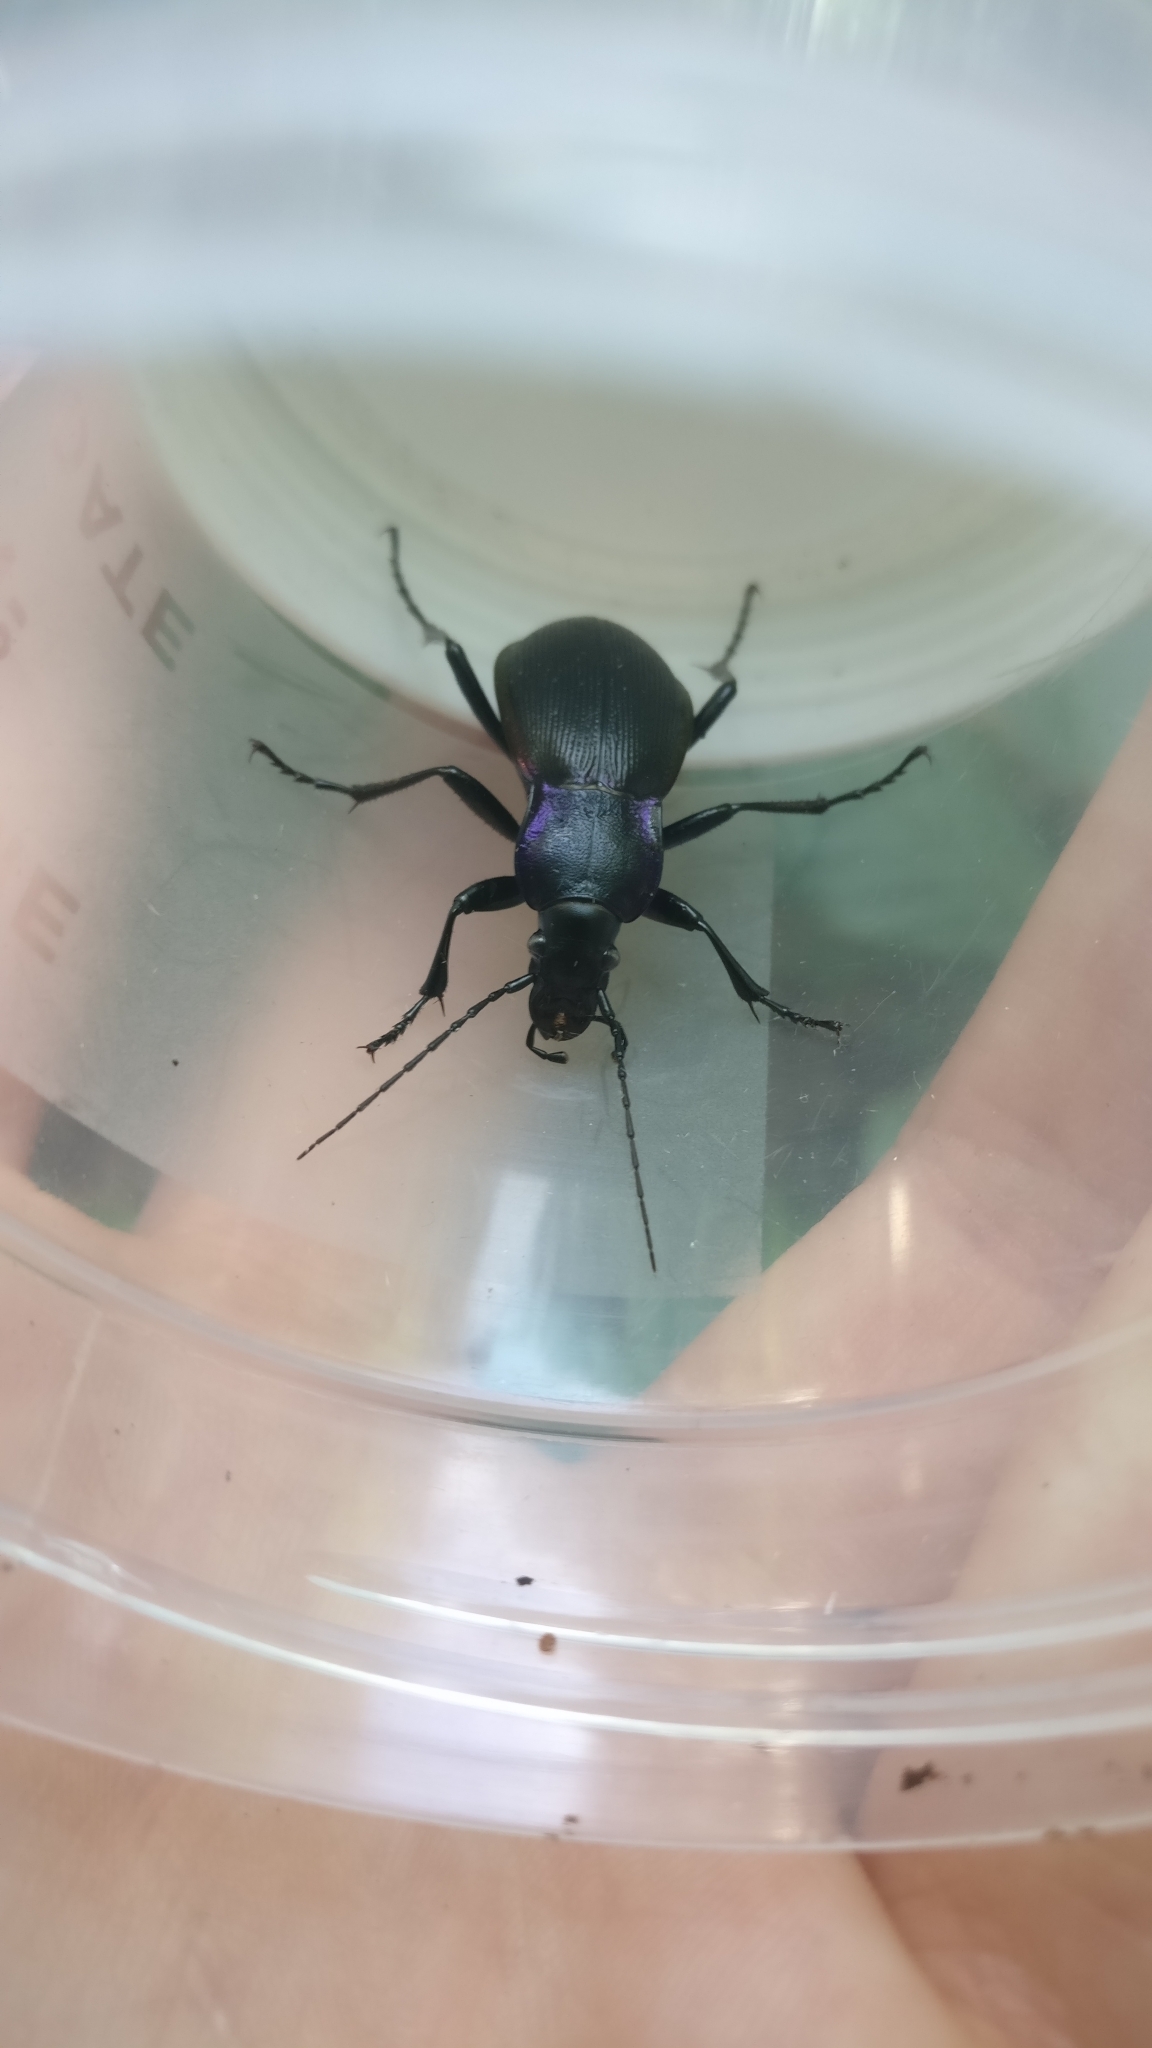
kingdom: Animalia
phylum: Arthropoda
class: Insecta
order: Coleoptera
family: Carabidae
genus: Carabus
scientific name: Carabus purpurascens
